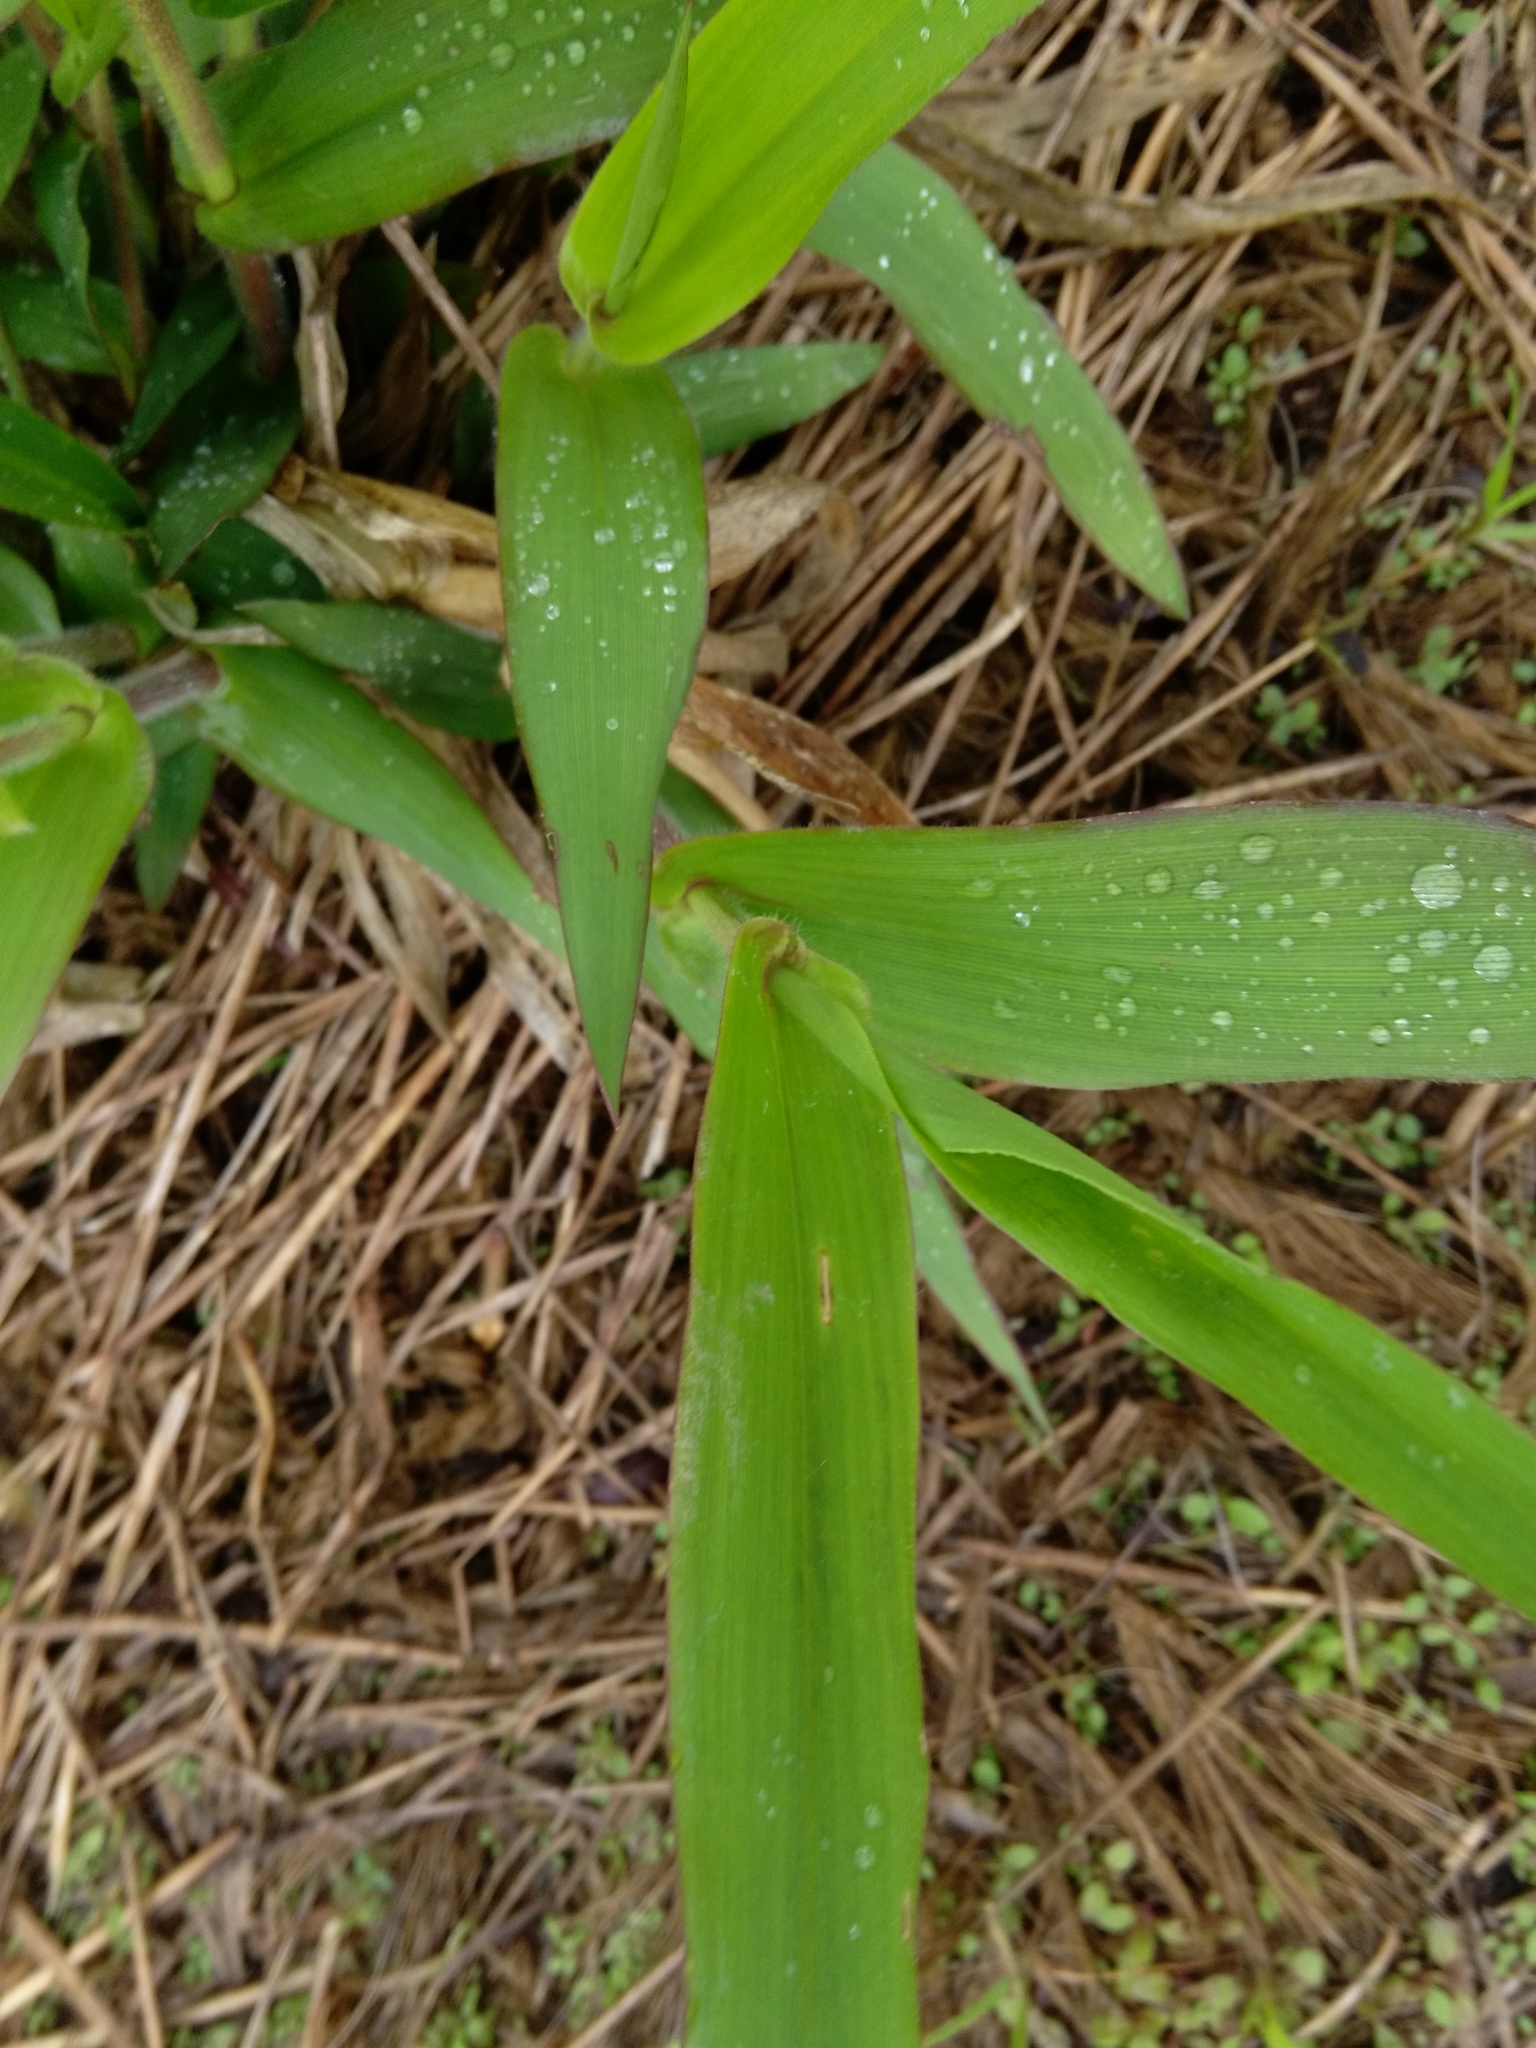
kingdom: Plantae
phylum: Tracheophyta
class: Liliopsida
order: Poales
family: Poaceae
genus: Dichanthelium
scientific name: Dichanthelium clandestinum
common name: Deer-tongue grass
